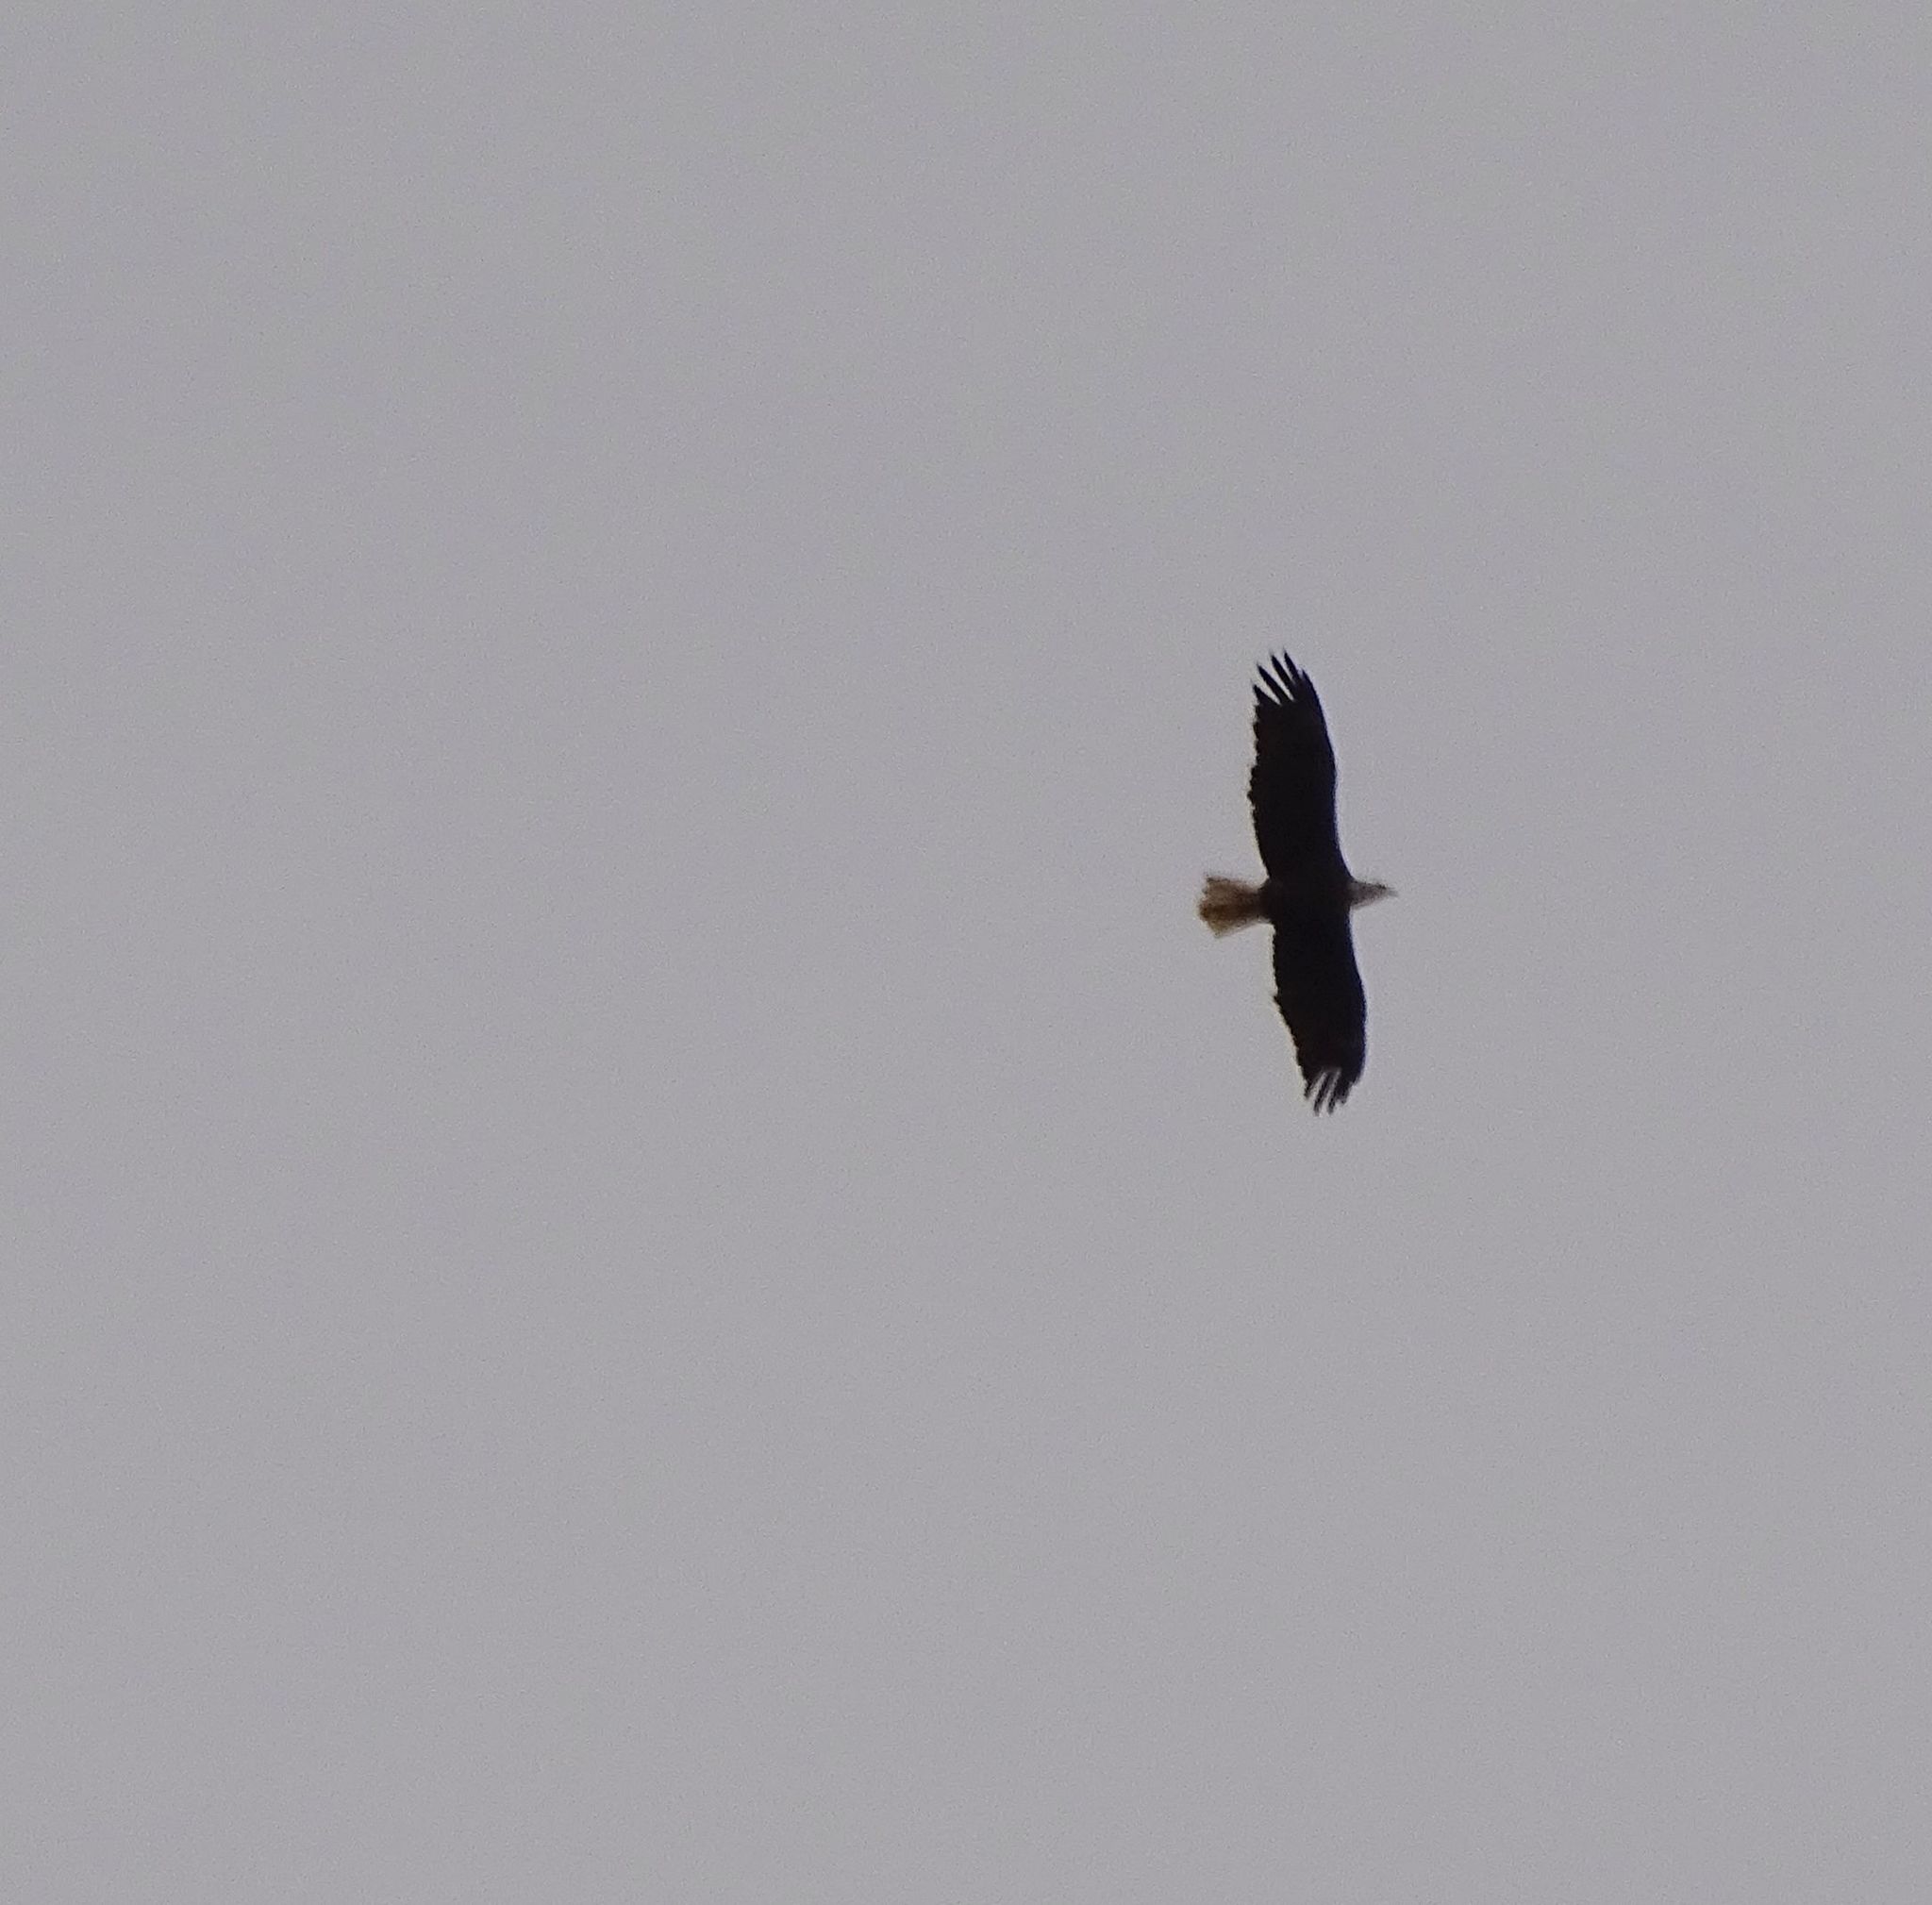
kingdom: Animalia
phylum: Chordata
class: Aves
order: Accipitriformes
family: Accipitridae
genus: Haliaeetus
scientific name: Haliaeetus leucocephalus
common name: Bald eagle
